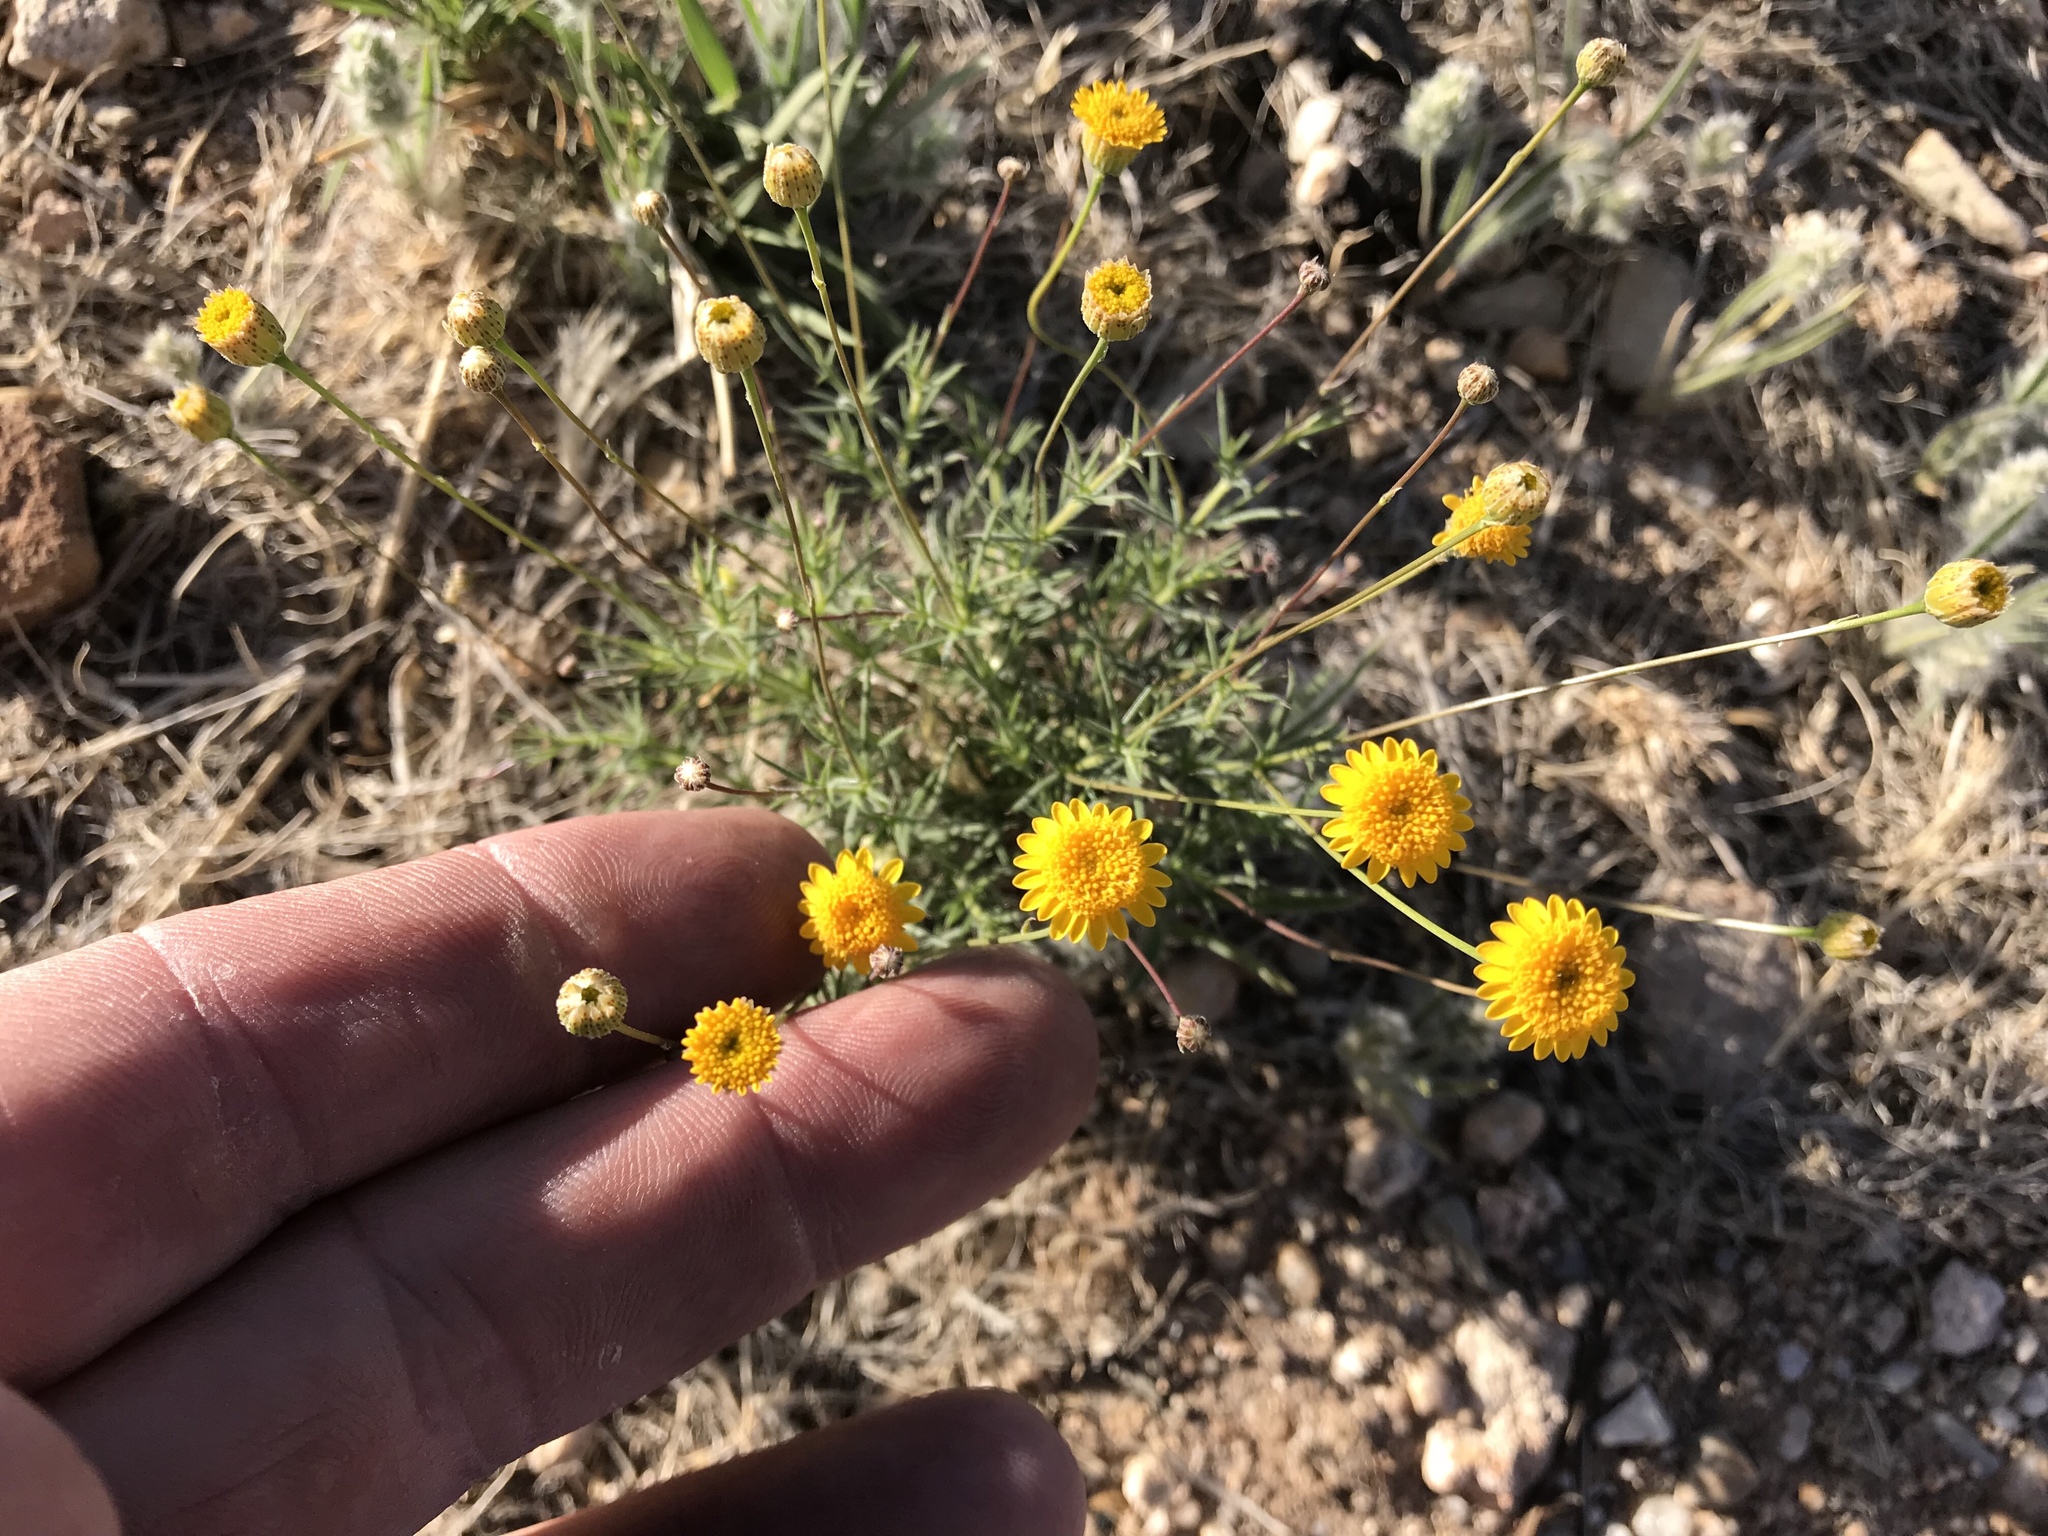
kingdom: Plantae
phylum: Tracheophyta
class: Magnoliopsida
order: Asterales
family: Asteraceae
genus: Thymophylla
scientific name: Thymophylla pentachaeta
